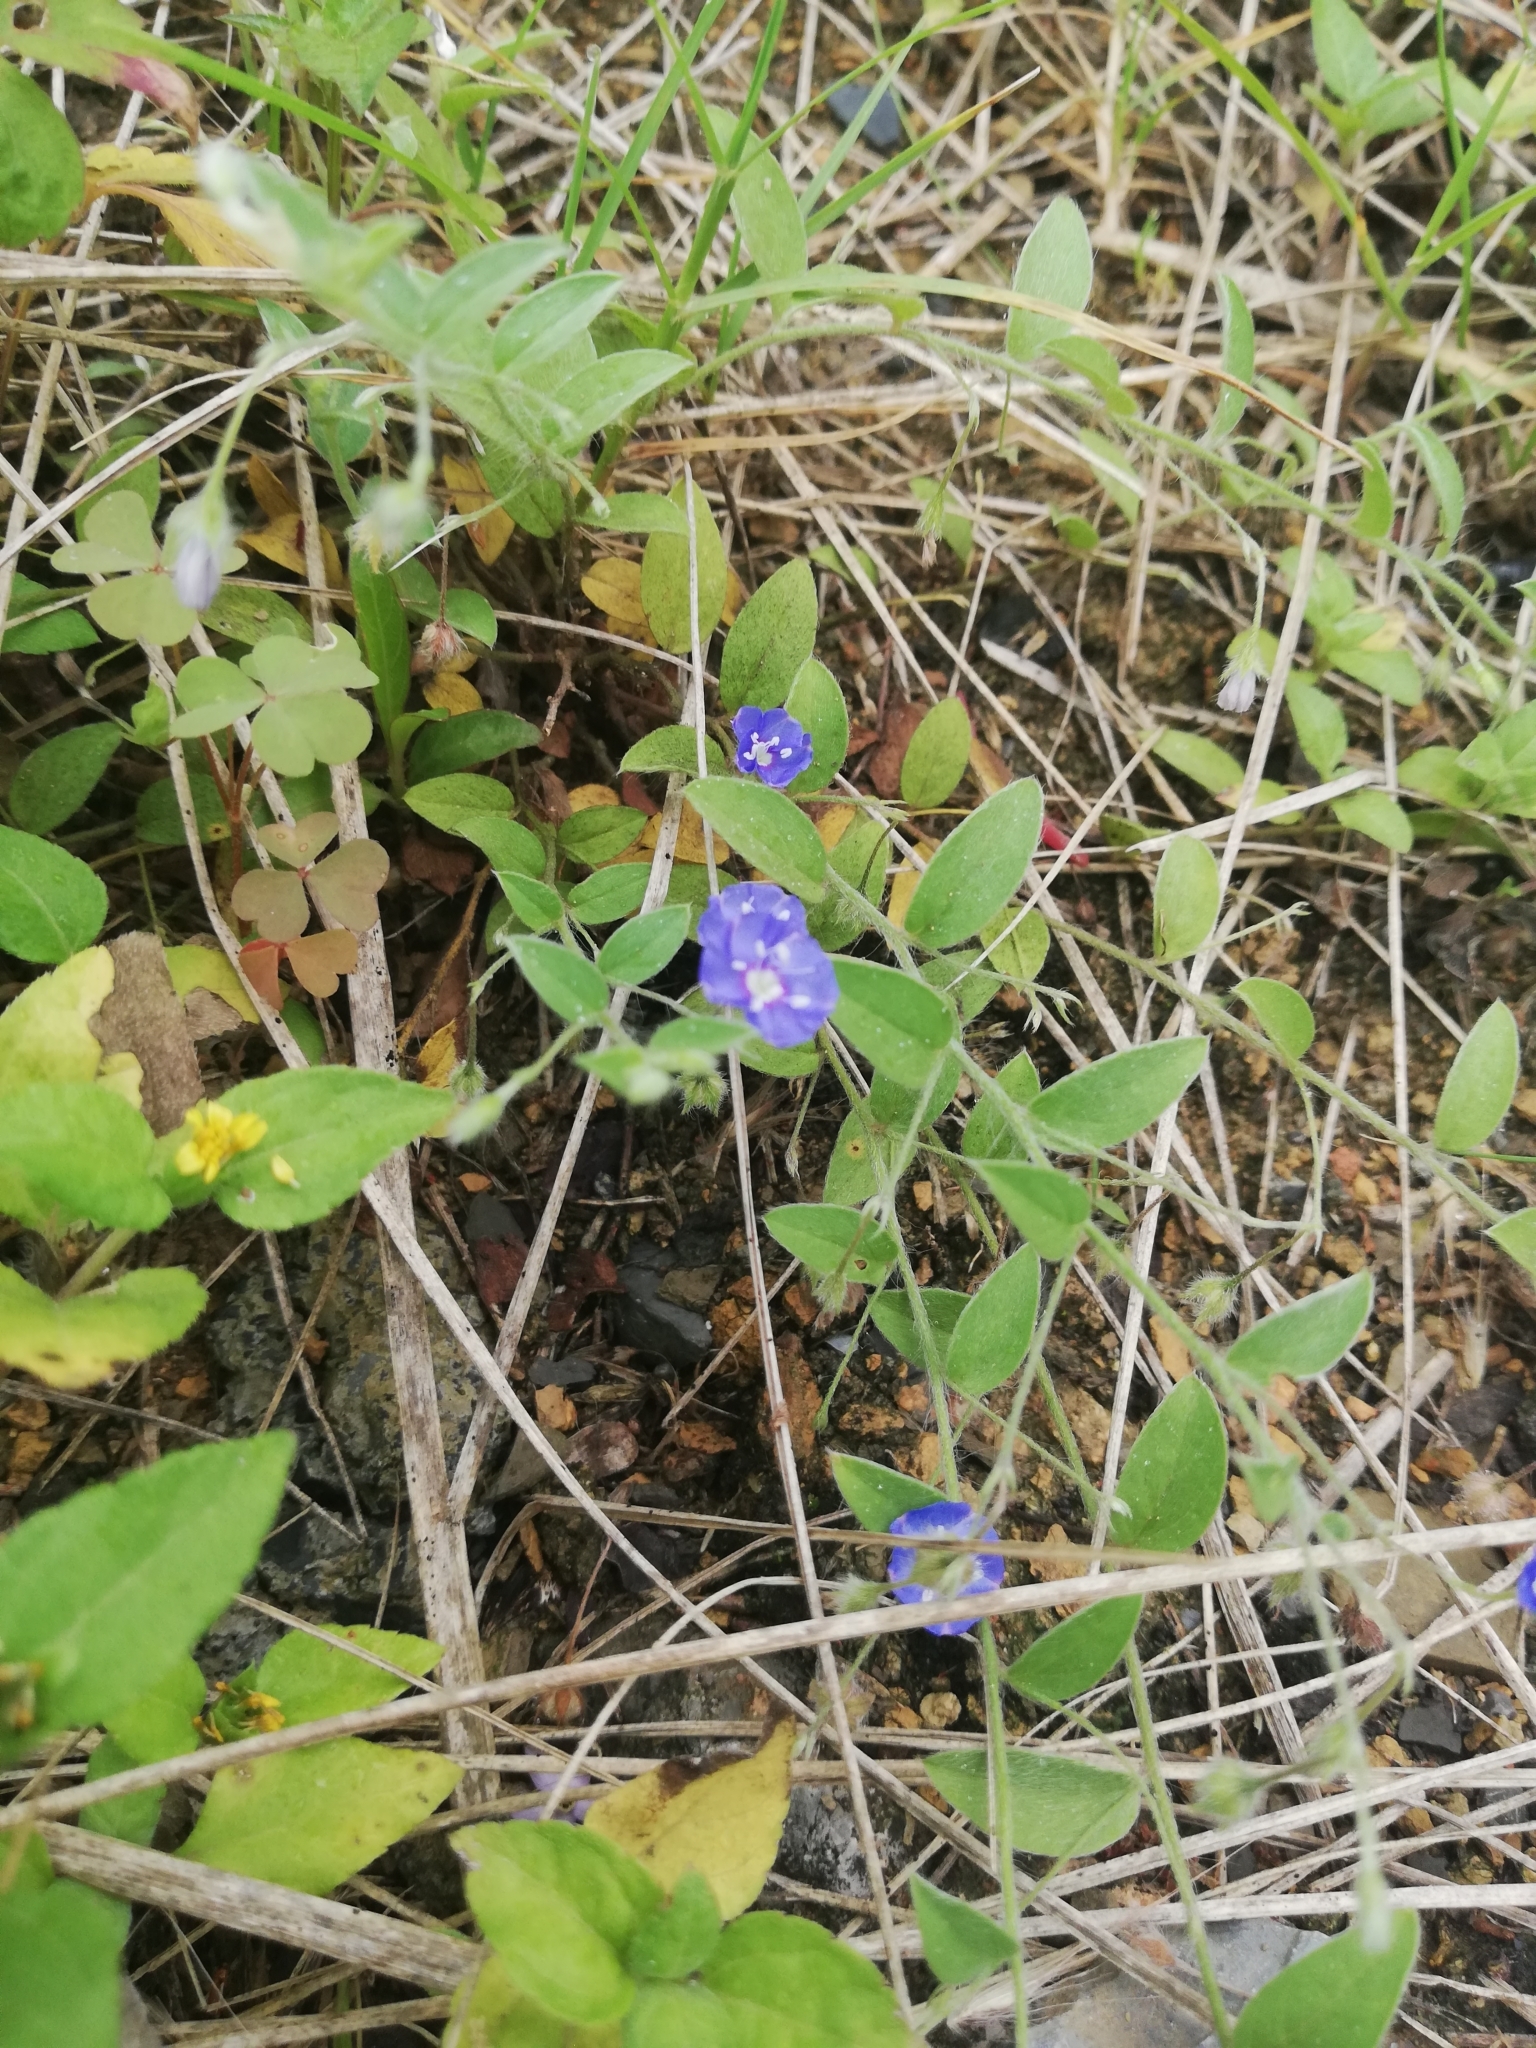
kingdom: Plantae
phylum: Tracheophyta
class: Magnoliopsida
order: Solanales
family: Convolvulaceae
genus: Evolvulus
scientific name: Evolvulus alsinoides
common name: Slender dwarf morning-glory
